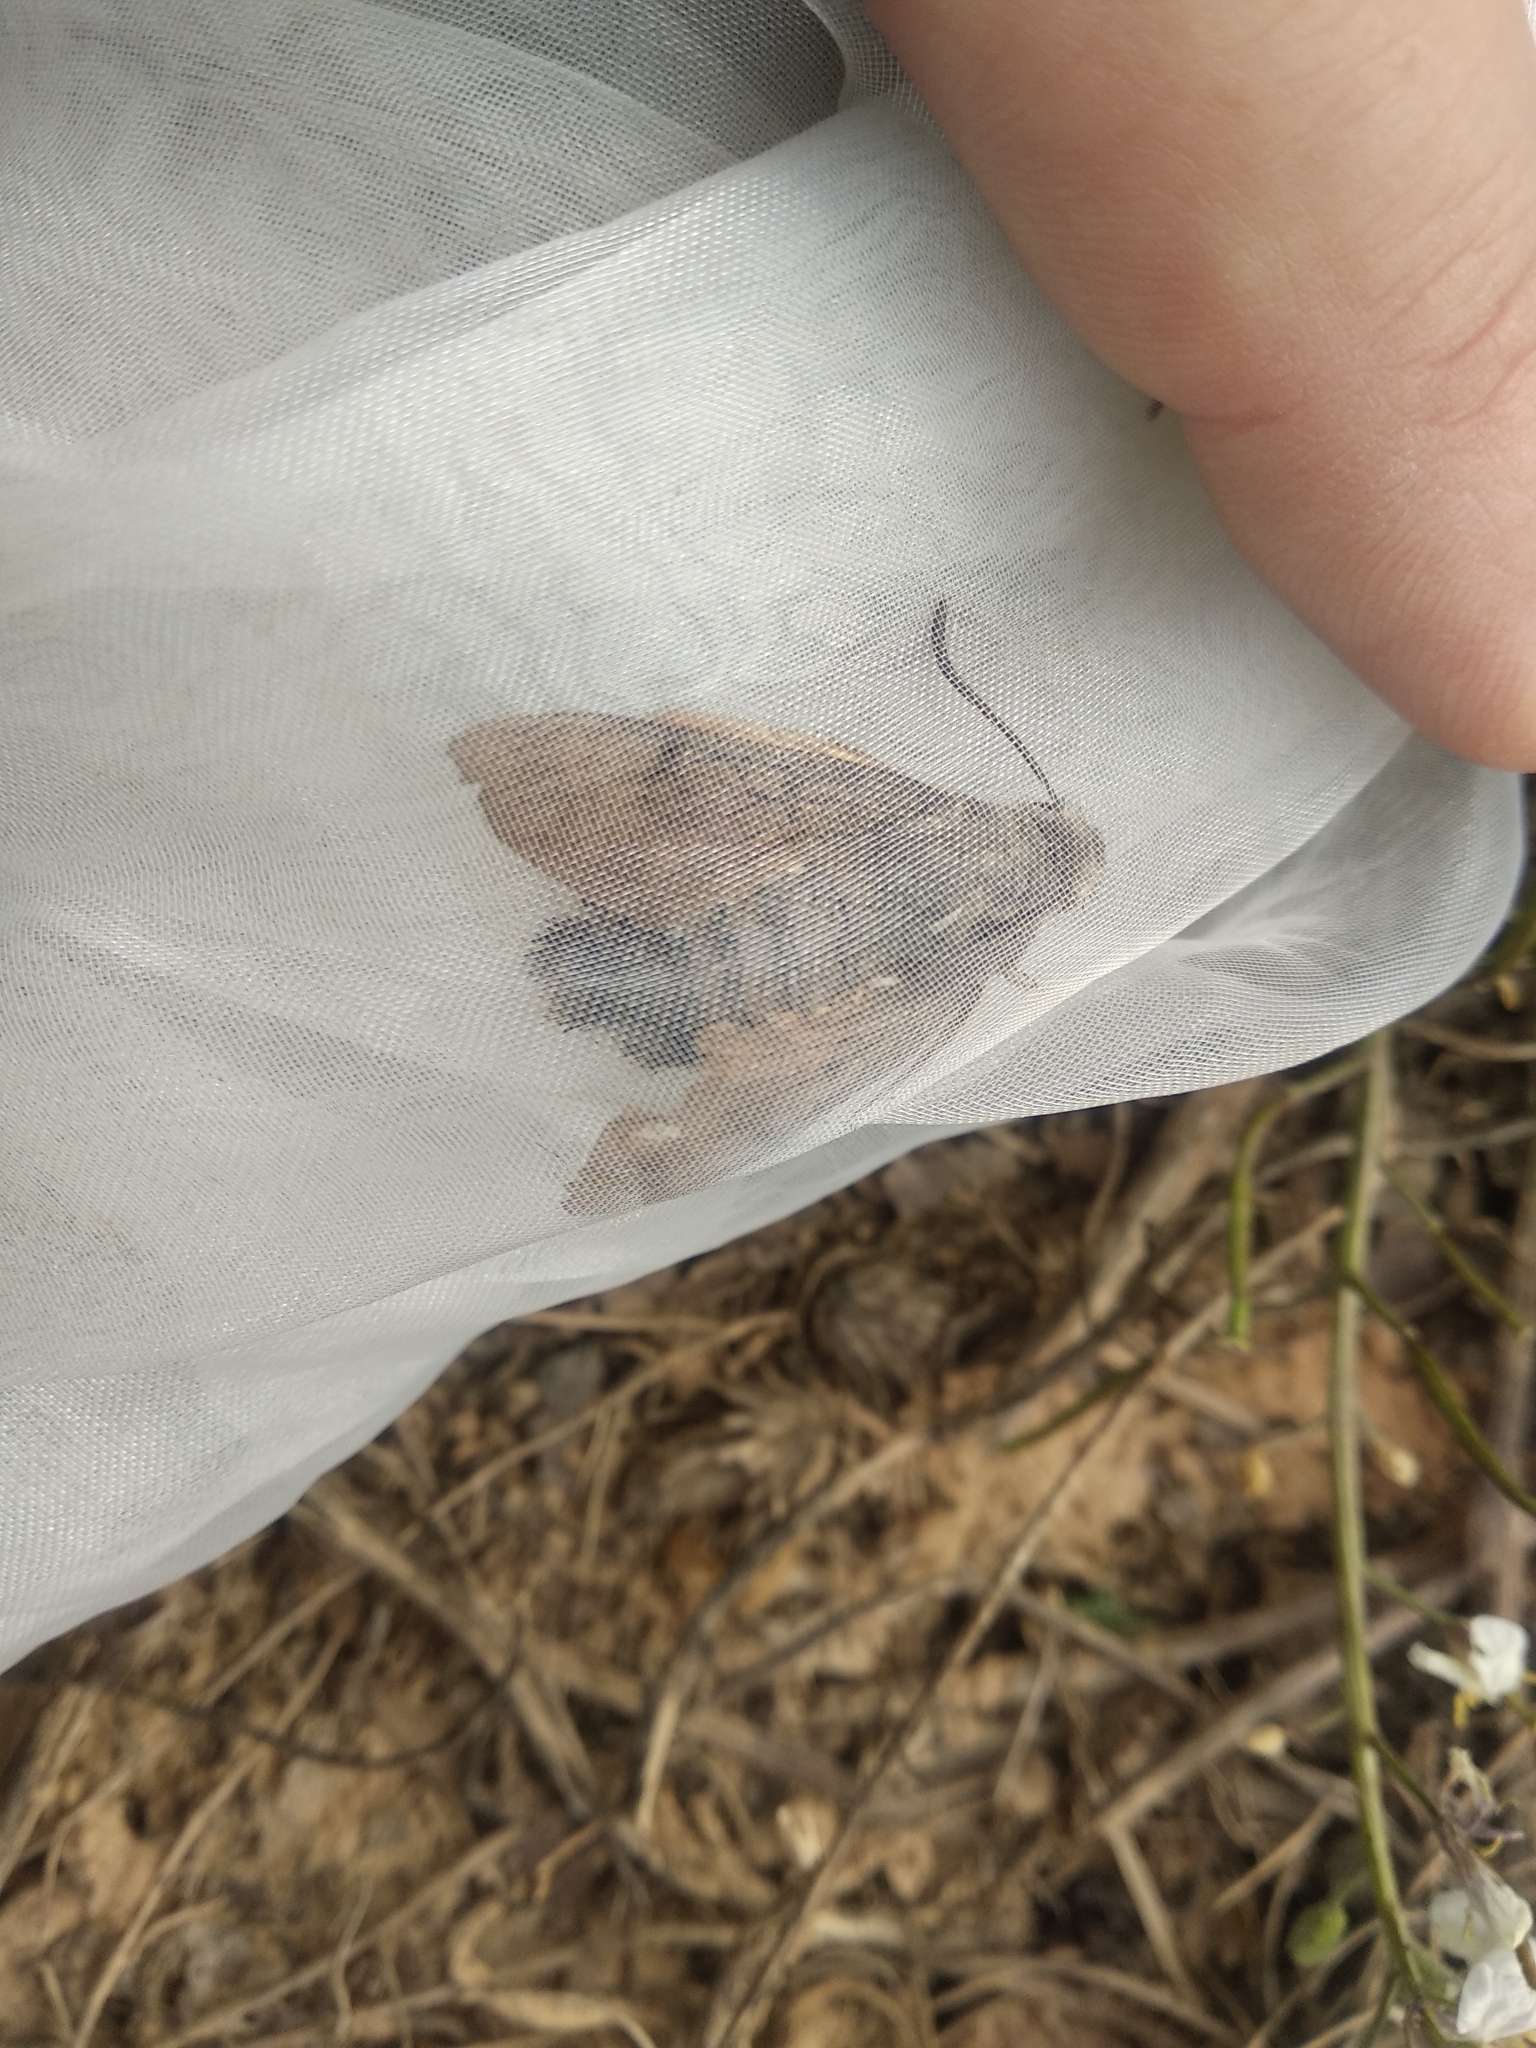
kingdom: Animalia
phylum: Arthropoda
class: Insecta
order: Lepidoptera
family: Sphingidae
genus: Macroglossum
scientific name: Macroglossum stellatarum
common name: Humming-bird hawk-moth
